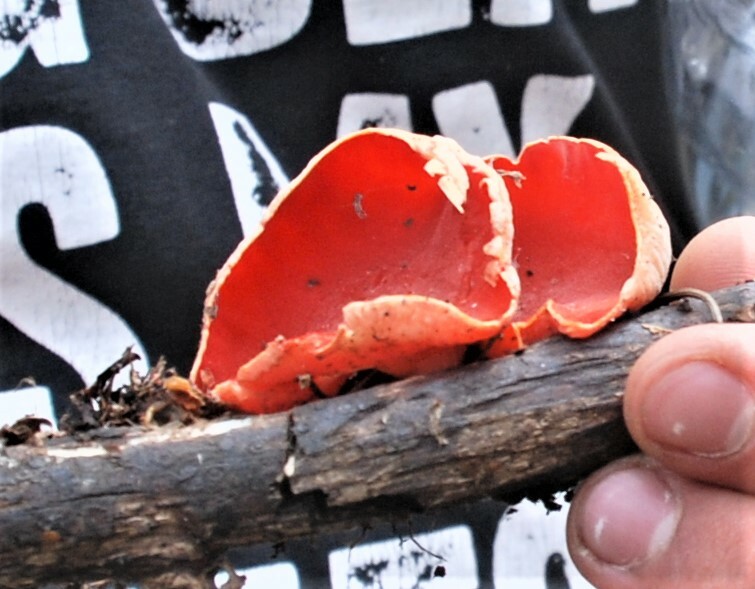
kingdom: Fungi
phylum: Ascomycota
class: Pezizomycetes
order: Pezizales
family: Sarcoscyphaceae
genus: Sarcoscypha
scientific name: Sarcoscypha
